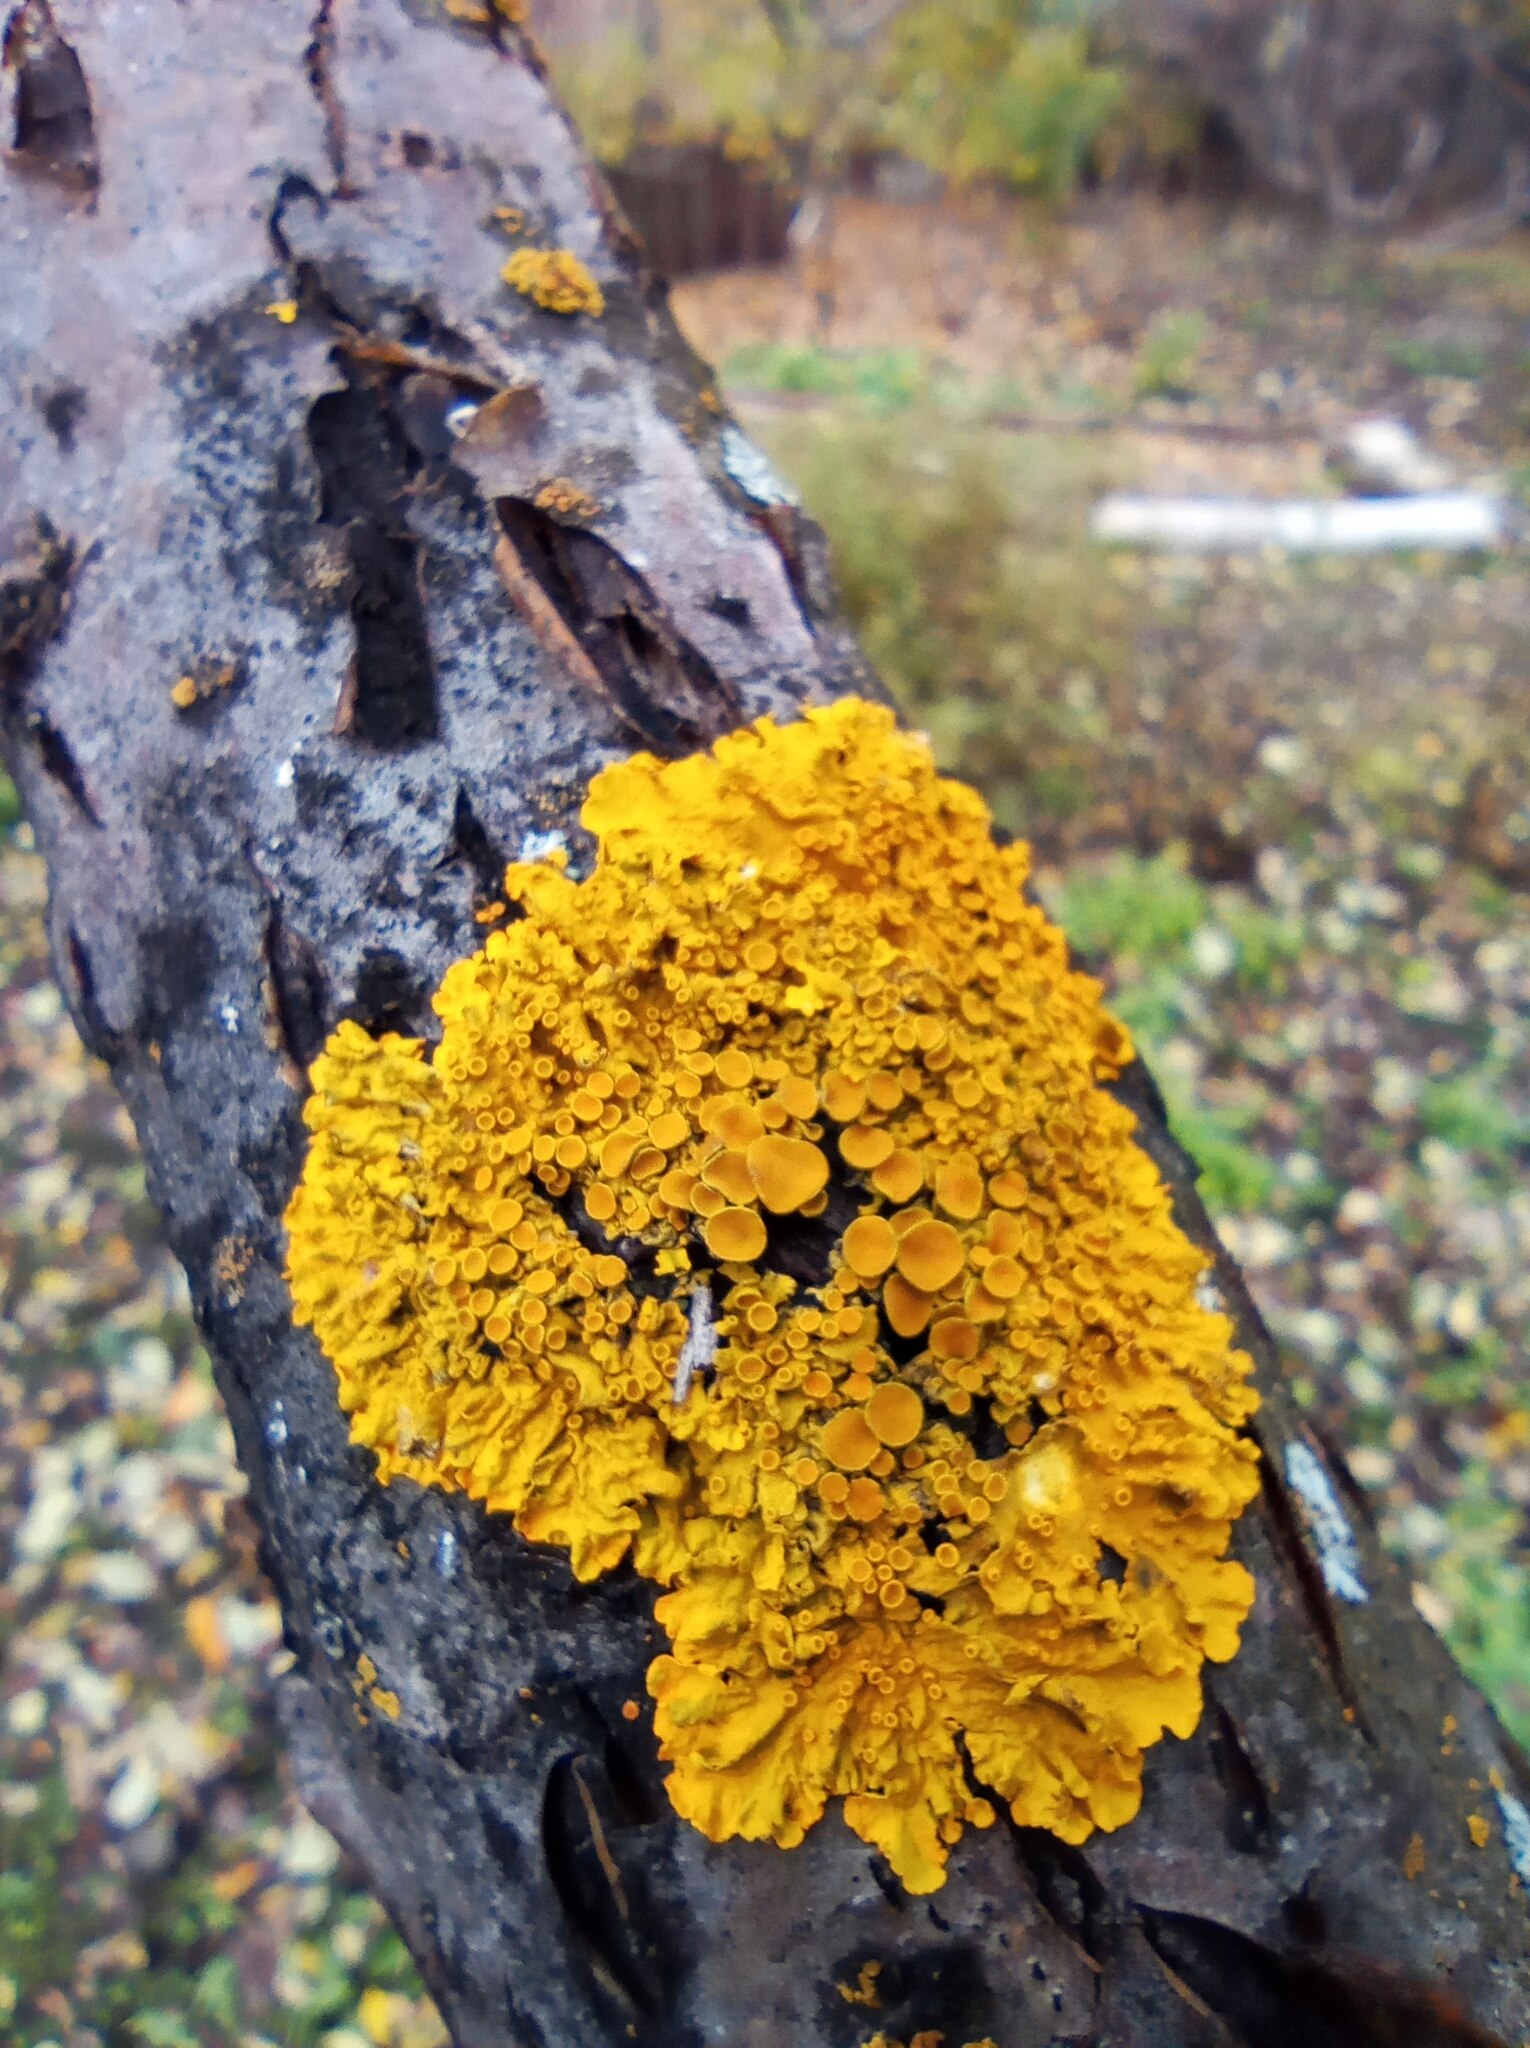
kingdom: Fungi
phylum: Ascomycota
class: Lecanoromycetes
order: Teloschistales
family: Teloschistaceae
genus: Xanthoria
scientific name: Xanthoria parietina
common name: Common orange lichen
